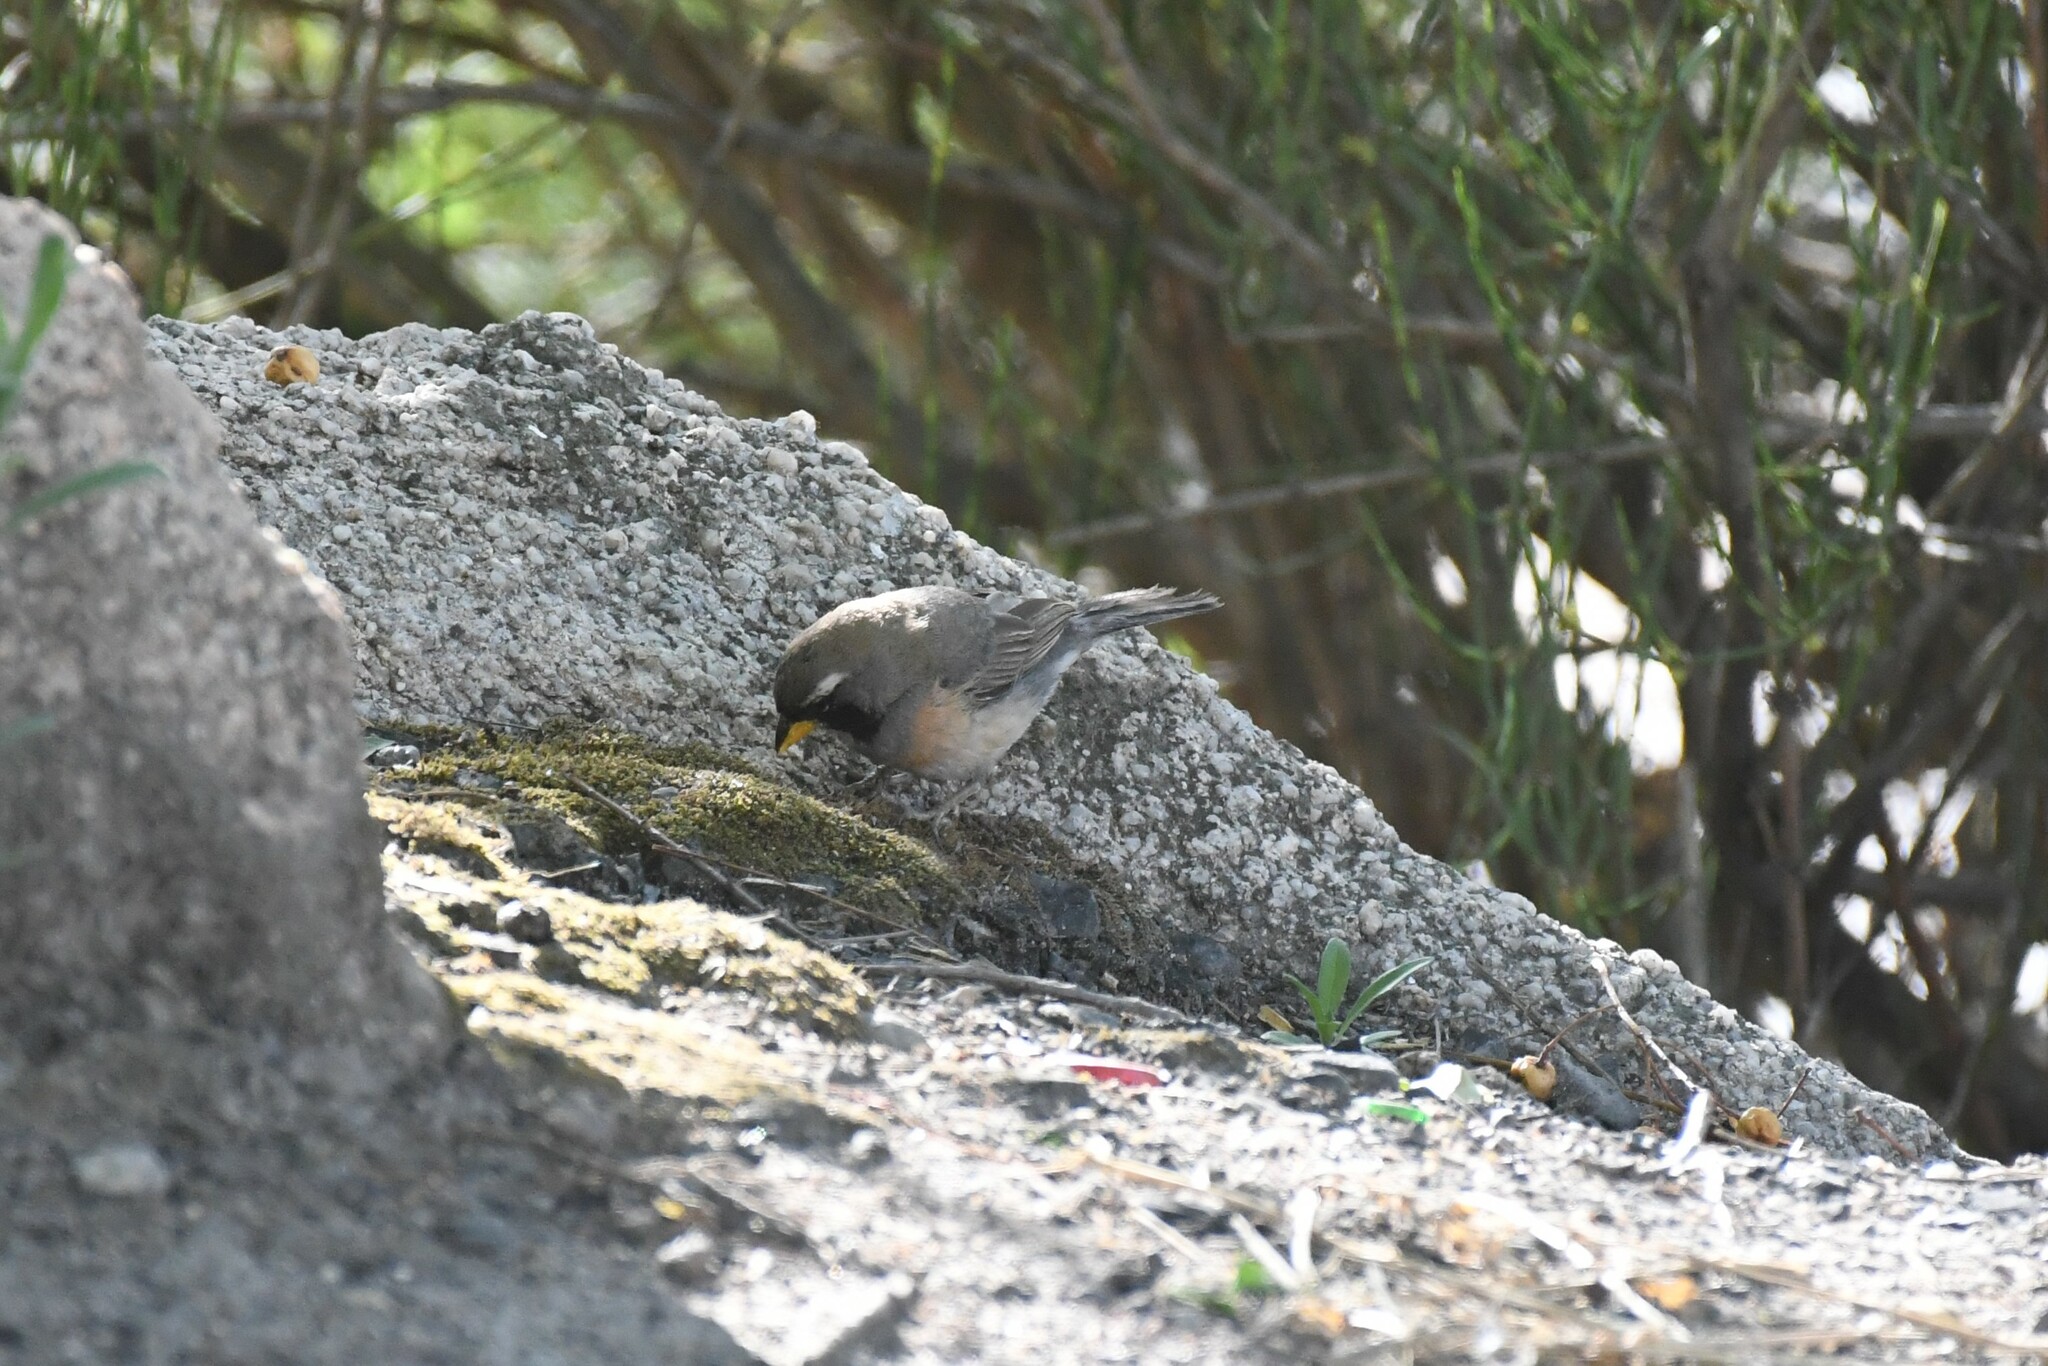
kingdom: Animalia
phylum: Chordata
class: Aves
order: Passeriformes
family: Thraupidae
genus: Saltatricula
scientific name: Saltatricula multicolor
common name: Many-colored chaco finch
